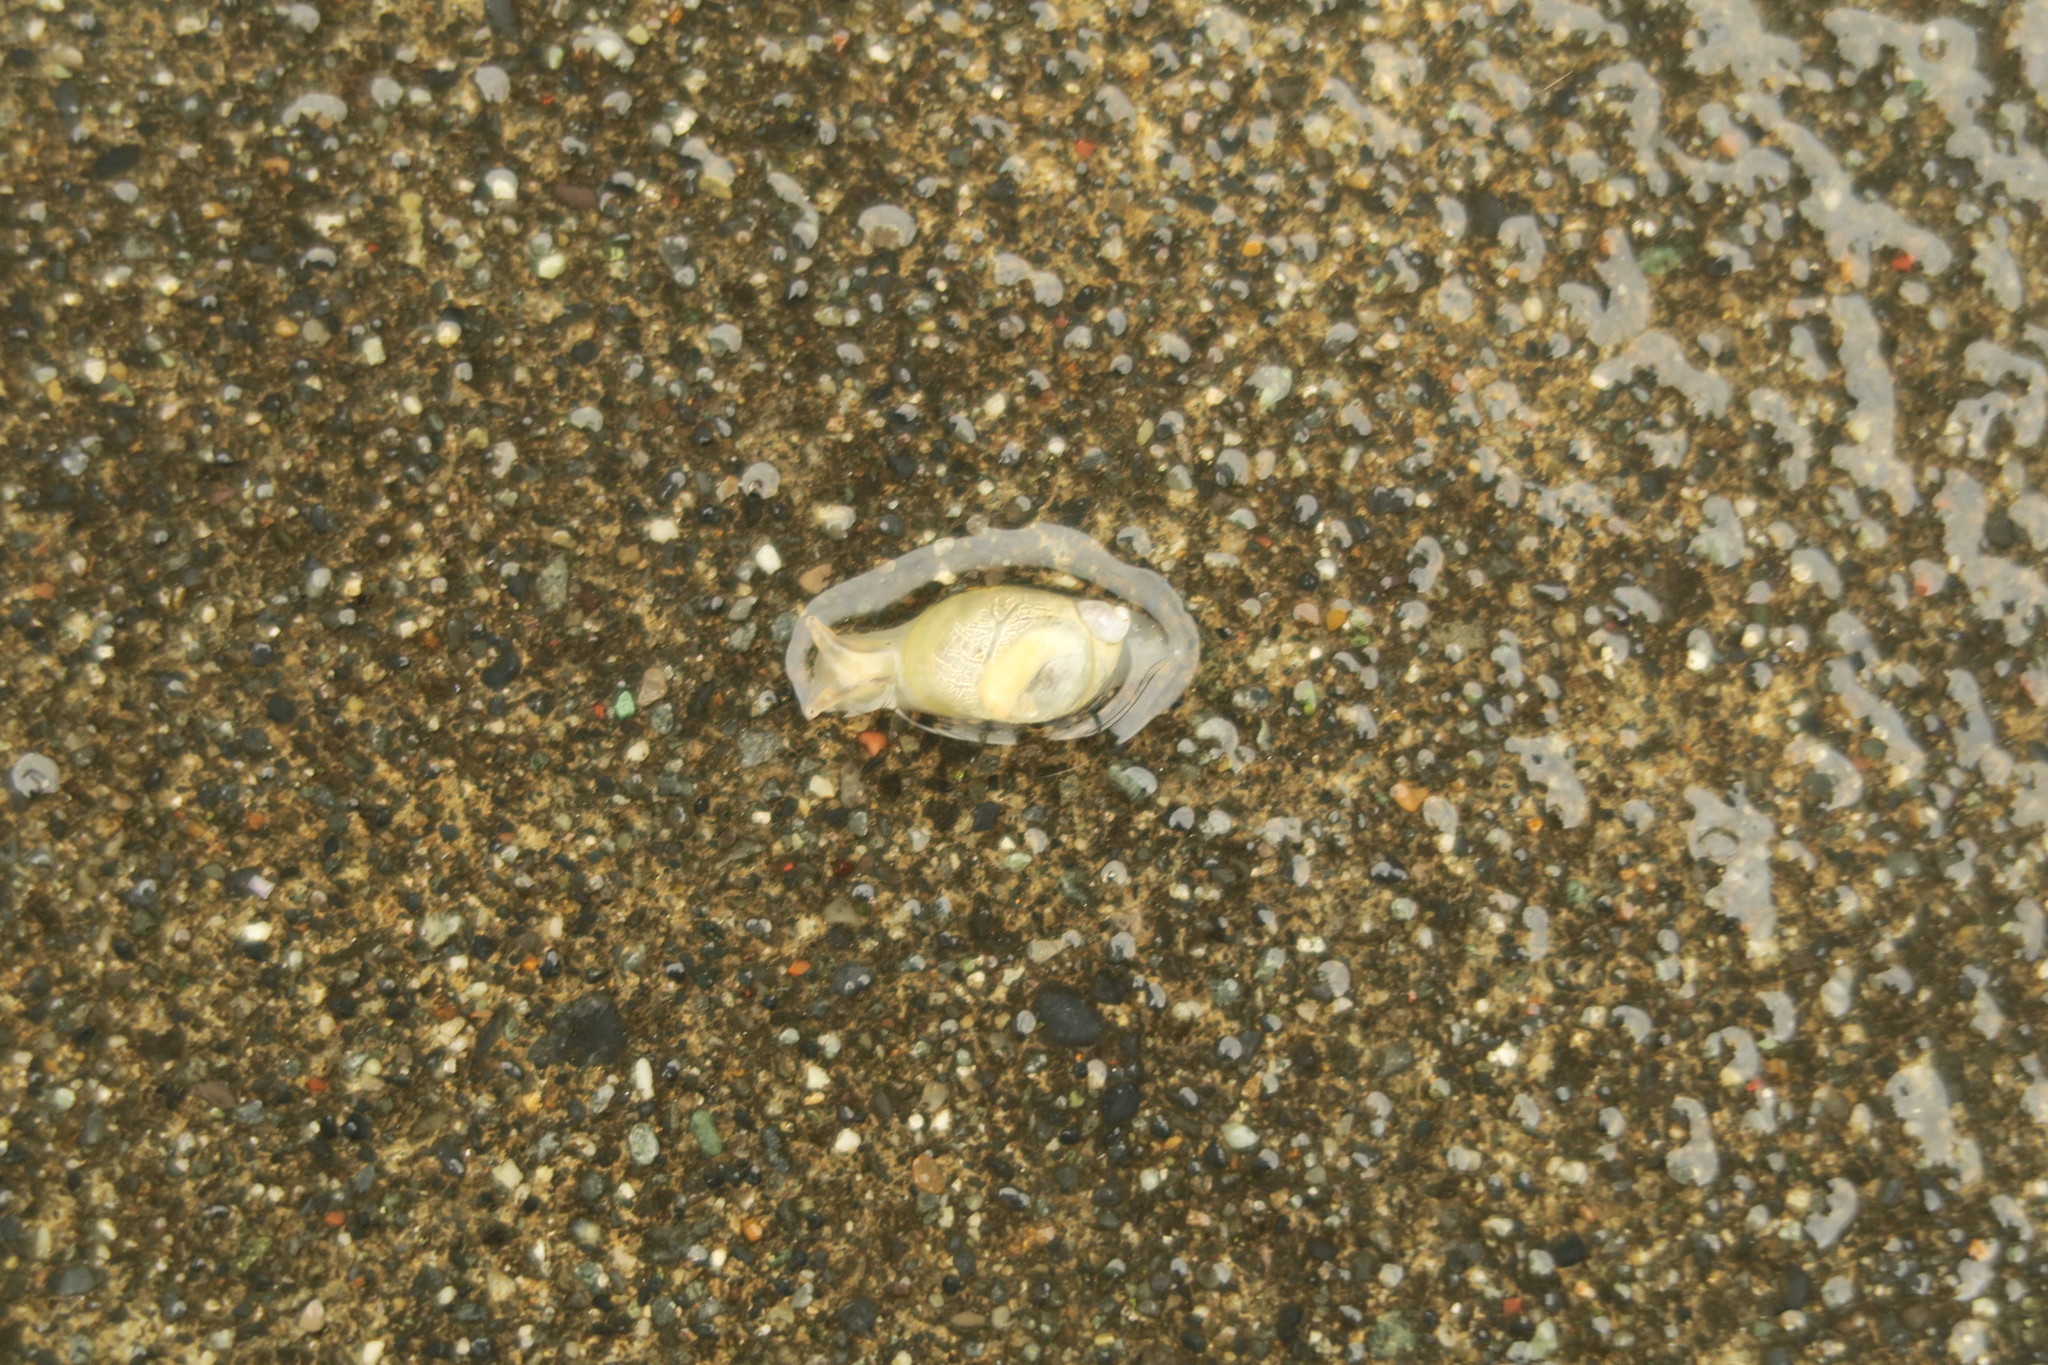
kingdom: Animalia
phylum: Mollusca
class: Gastropoda
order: Stylommatophora
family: Succineidae
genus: Succinea
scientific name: Succinea lauta
